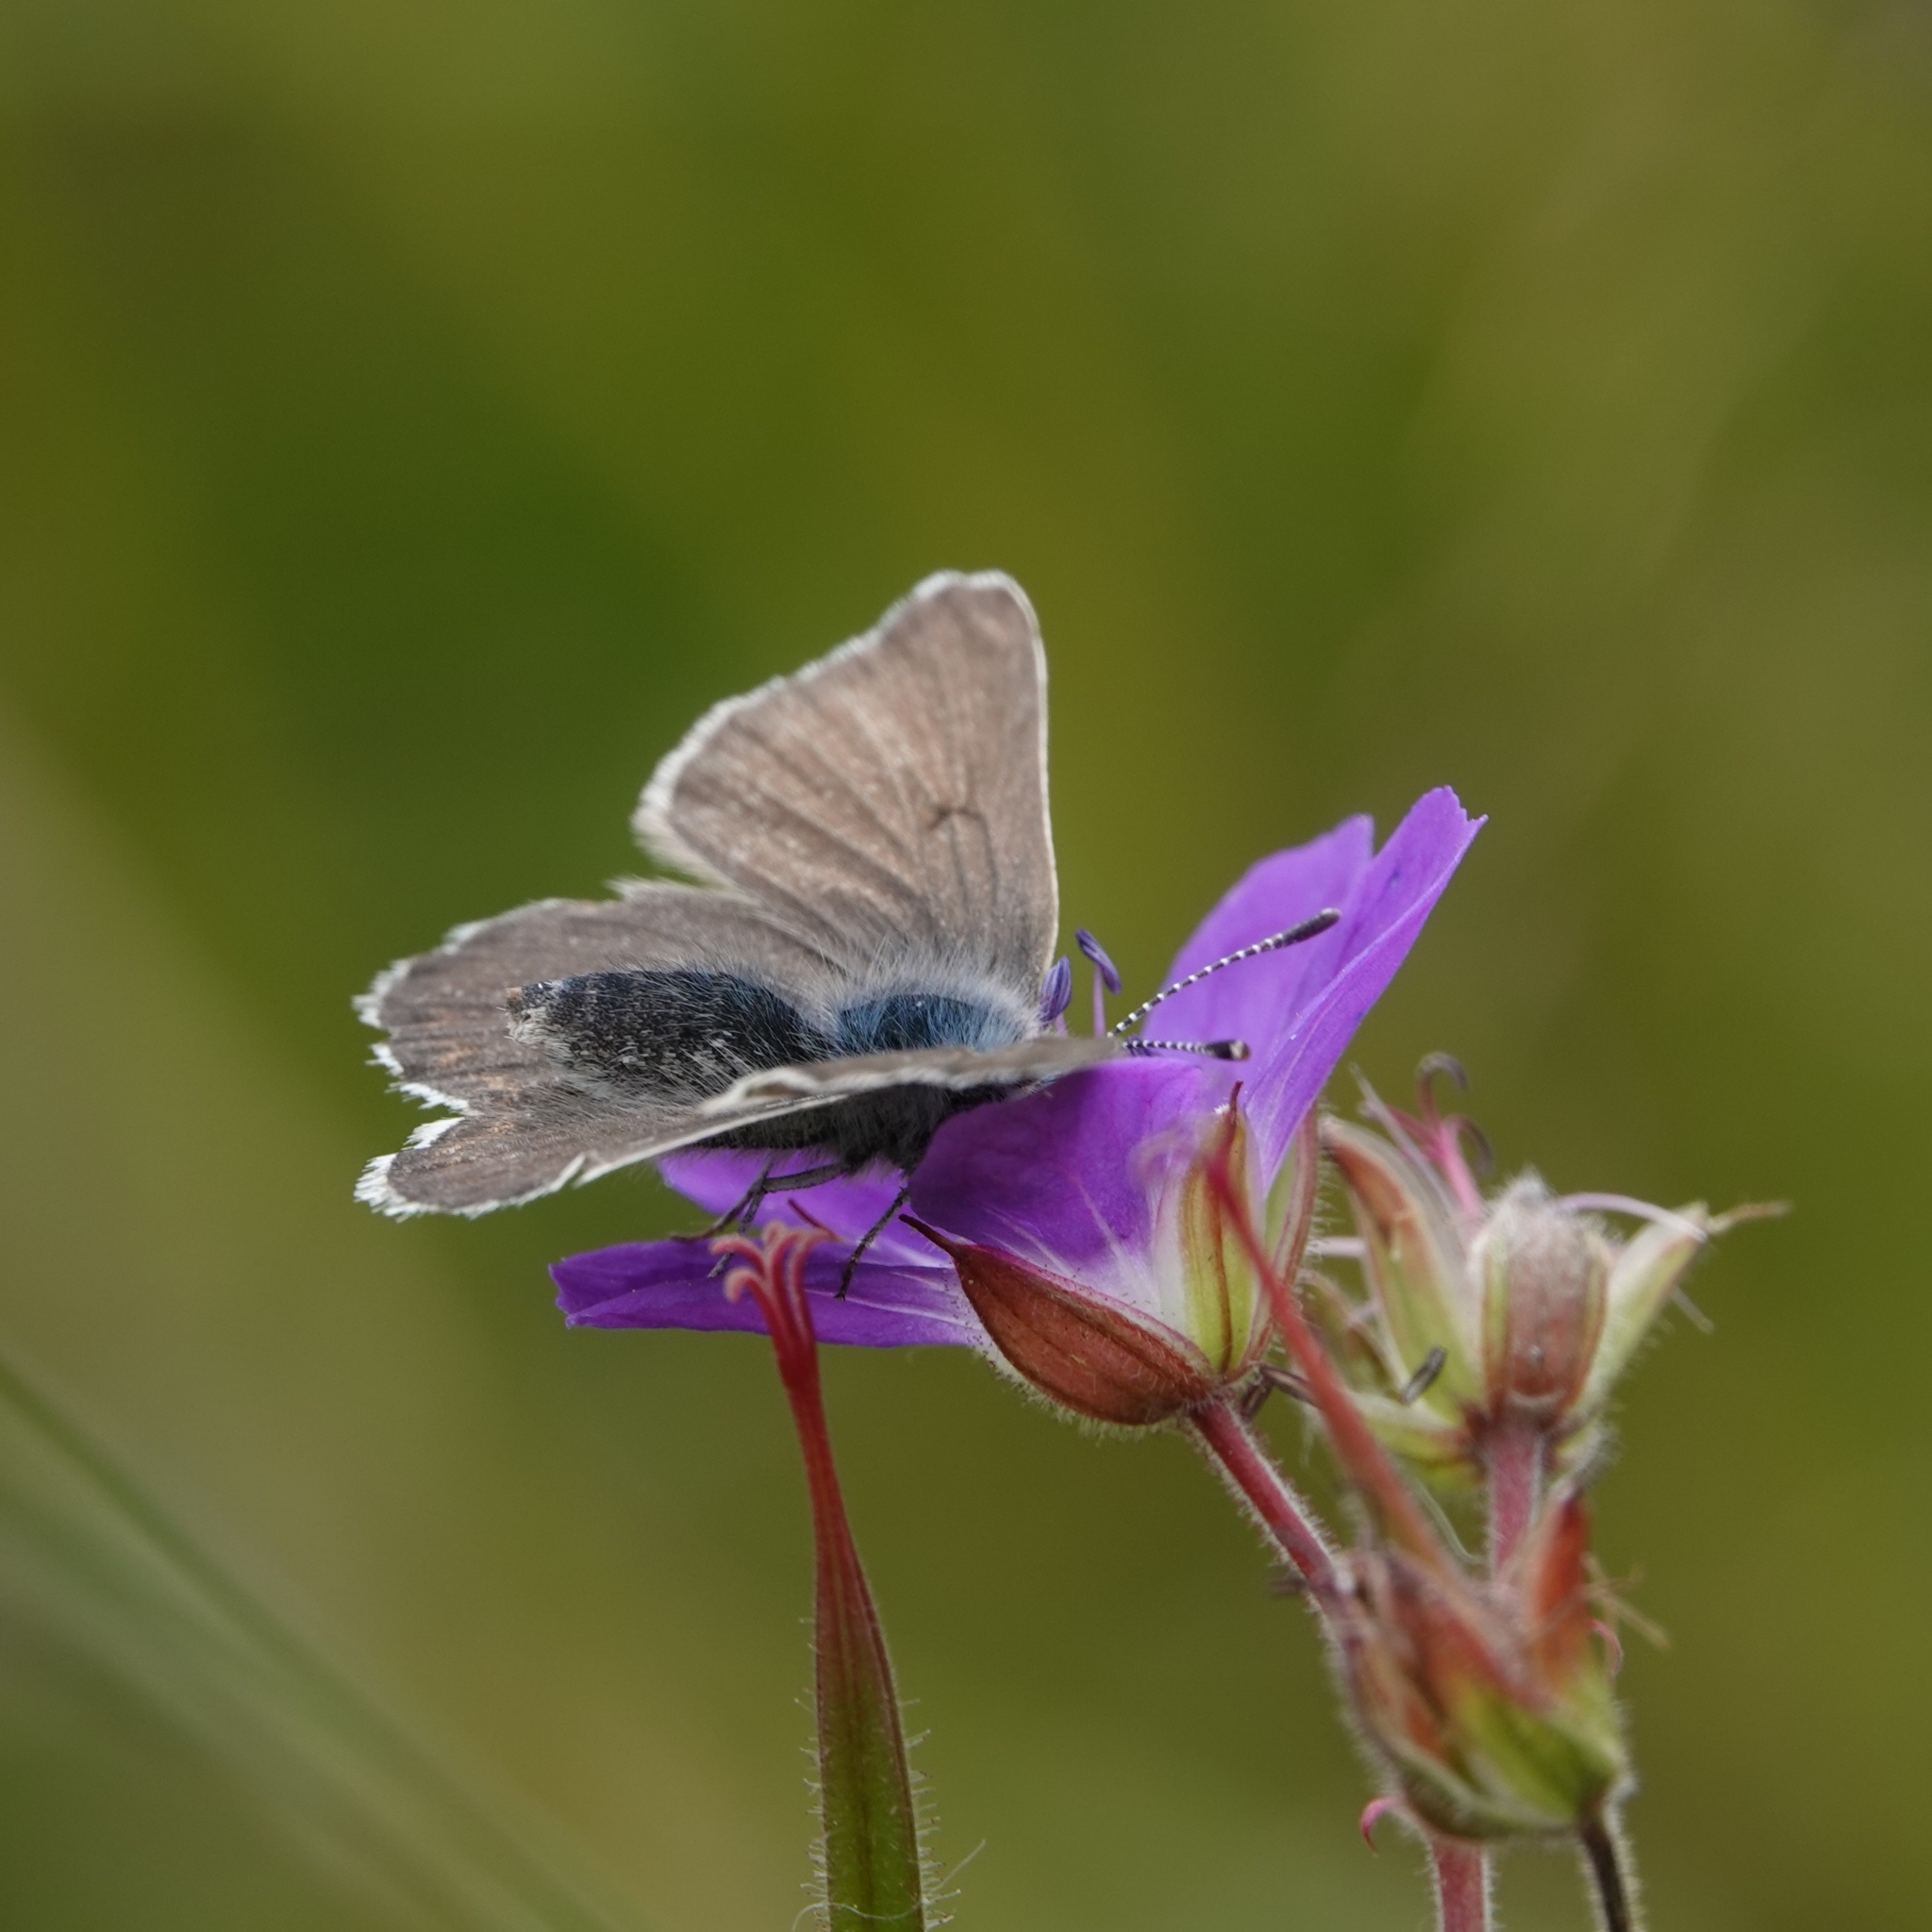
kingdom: Animalia
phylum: Arthropoda
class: Insecta
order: Lepidoptera
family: Lycaenidae
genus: Eumedonia
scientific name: Eumedonia eumedon
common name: Geranium argus
